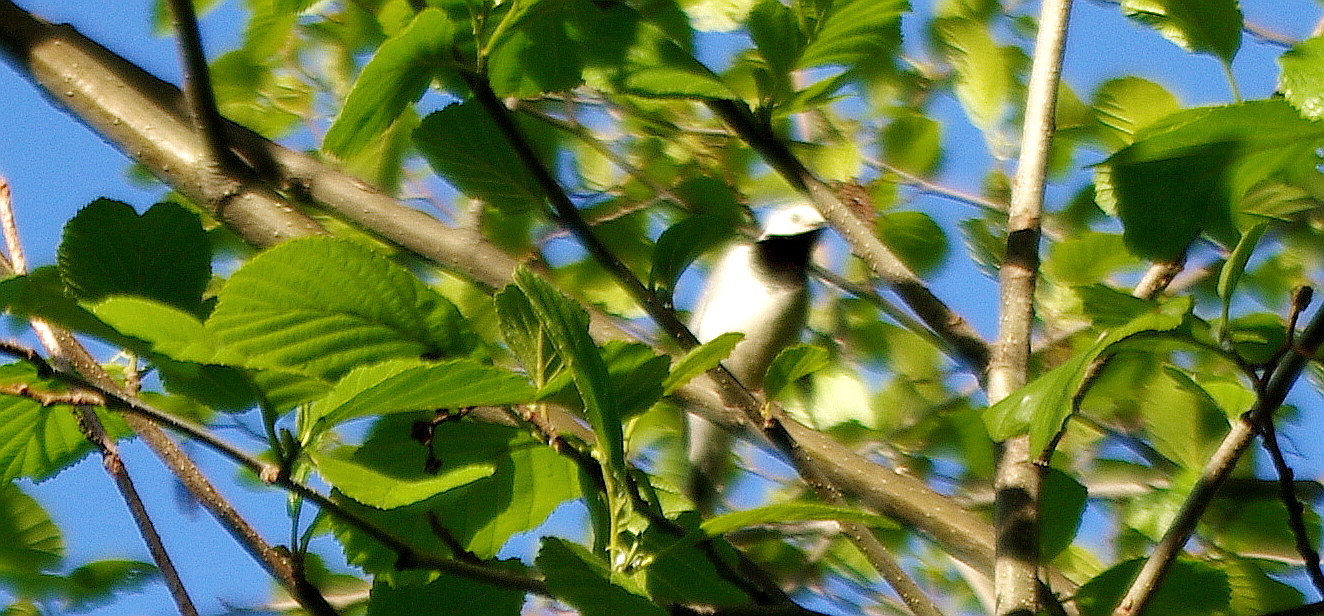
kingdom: Animalia
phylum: Chordata
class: Aves
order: Passeriformes
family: Motacillidae
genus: Motacilla
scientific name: Motacilla alba
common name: White wagtail
